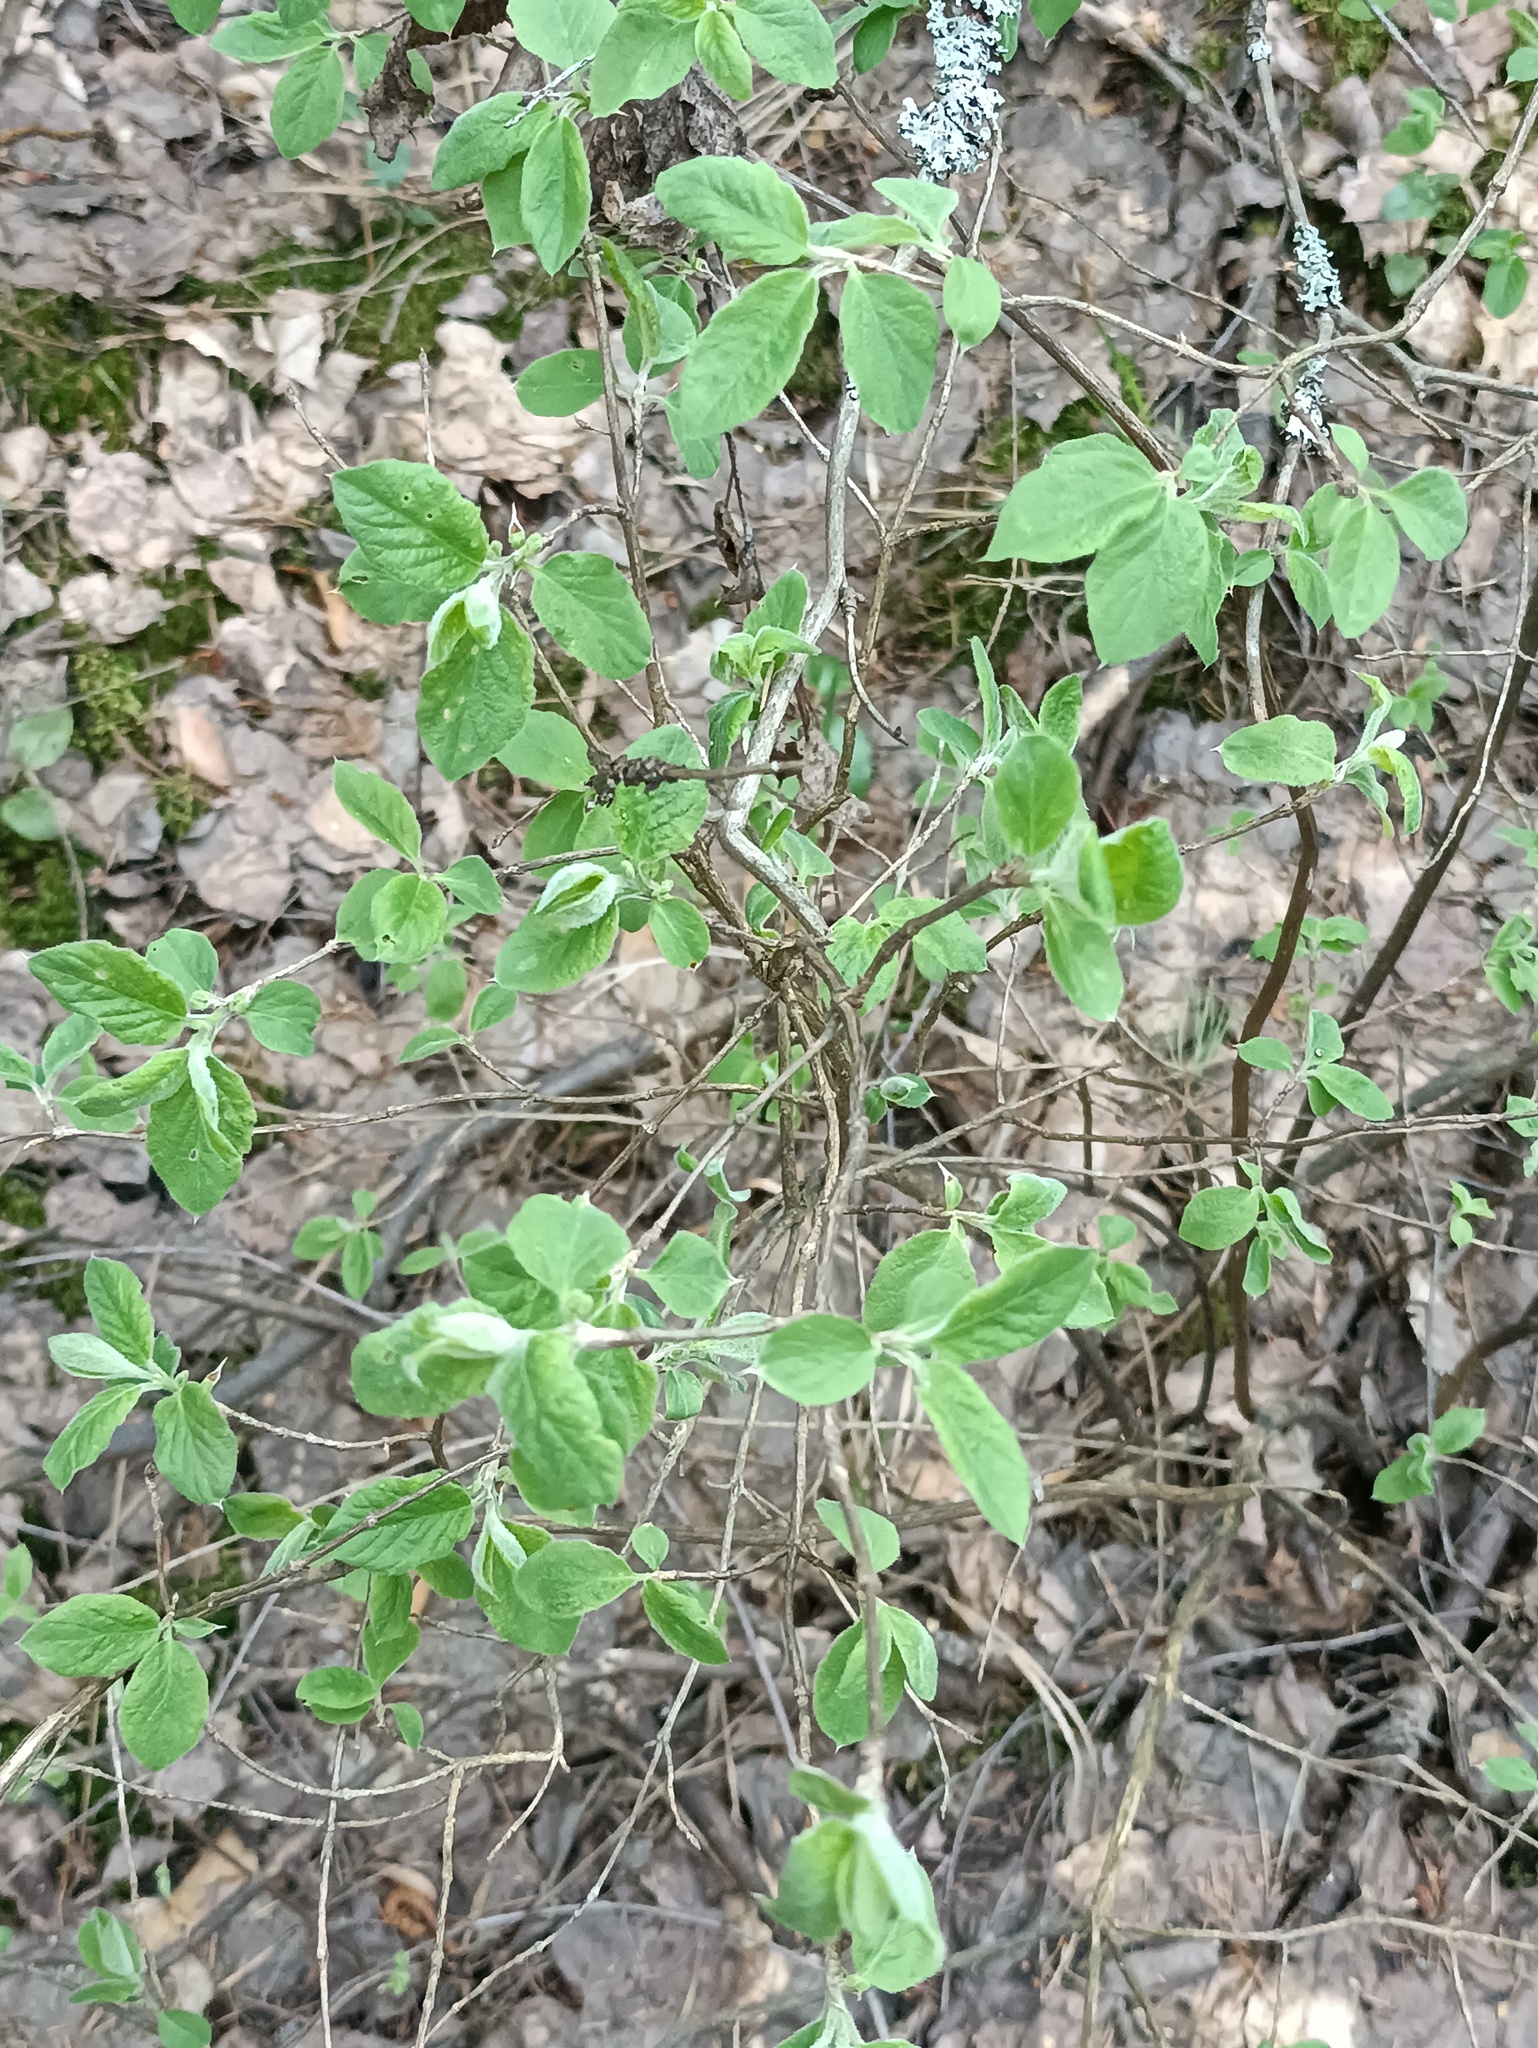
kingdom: Plantae
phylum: Tracheophyta
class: Magnoliopsida
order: Dipsacales
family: Caprifoliaceae
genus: Lonicera
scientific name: Lonicera xylosteum
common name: Fly honeysuckle
